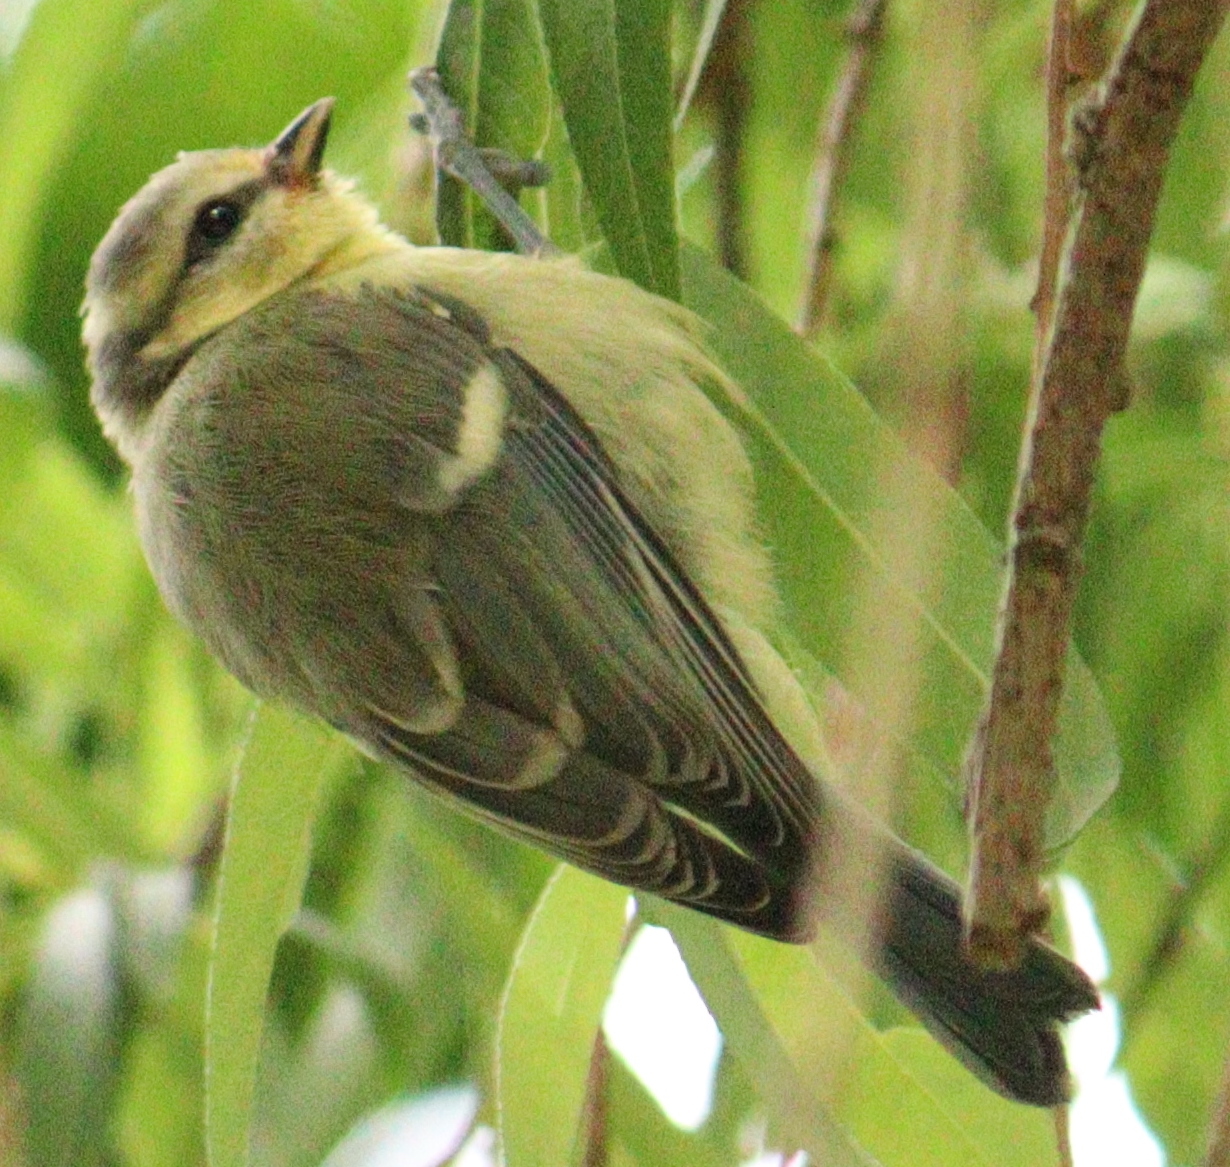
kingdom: Animalia
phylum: Chordata
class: Aves
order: Passeriformes
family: Paridae
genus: Cyanistes
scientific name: Cyanistes caeruleus
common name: Eurasian blue tit
